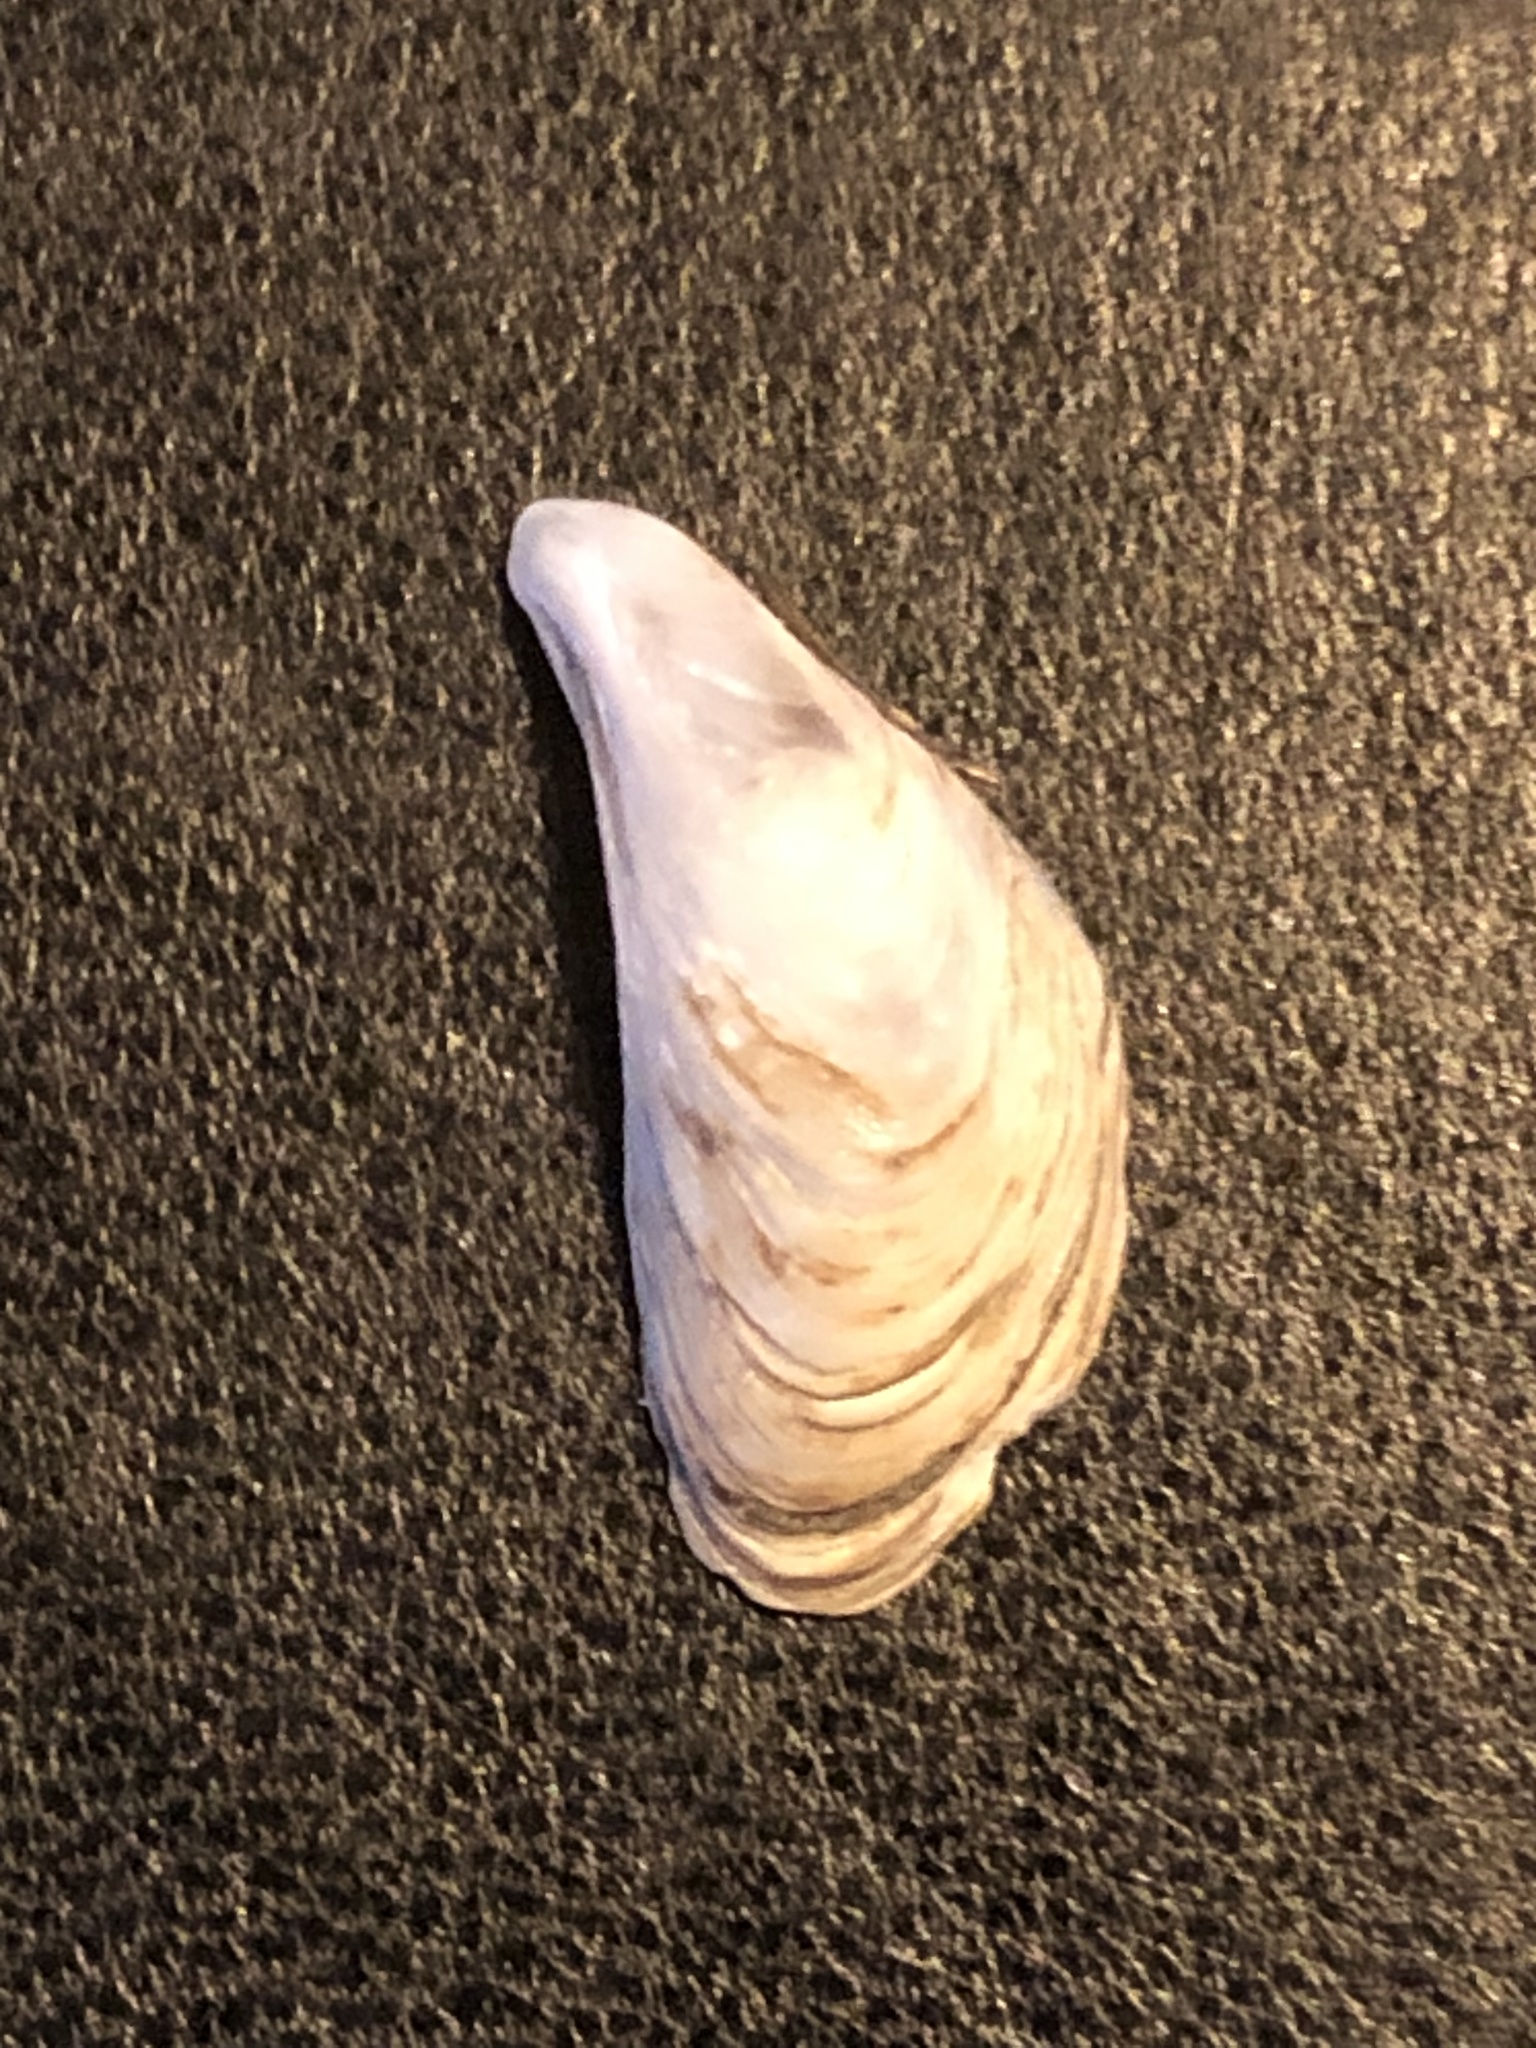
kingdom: Animalia
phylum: Mollusca
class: Bivalvia
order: Myida
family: Dreissenidae
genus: Dreissena
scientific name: Dreissena bugensis
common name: Quagga mussel
